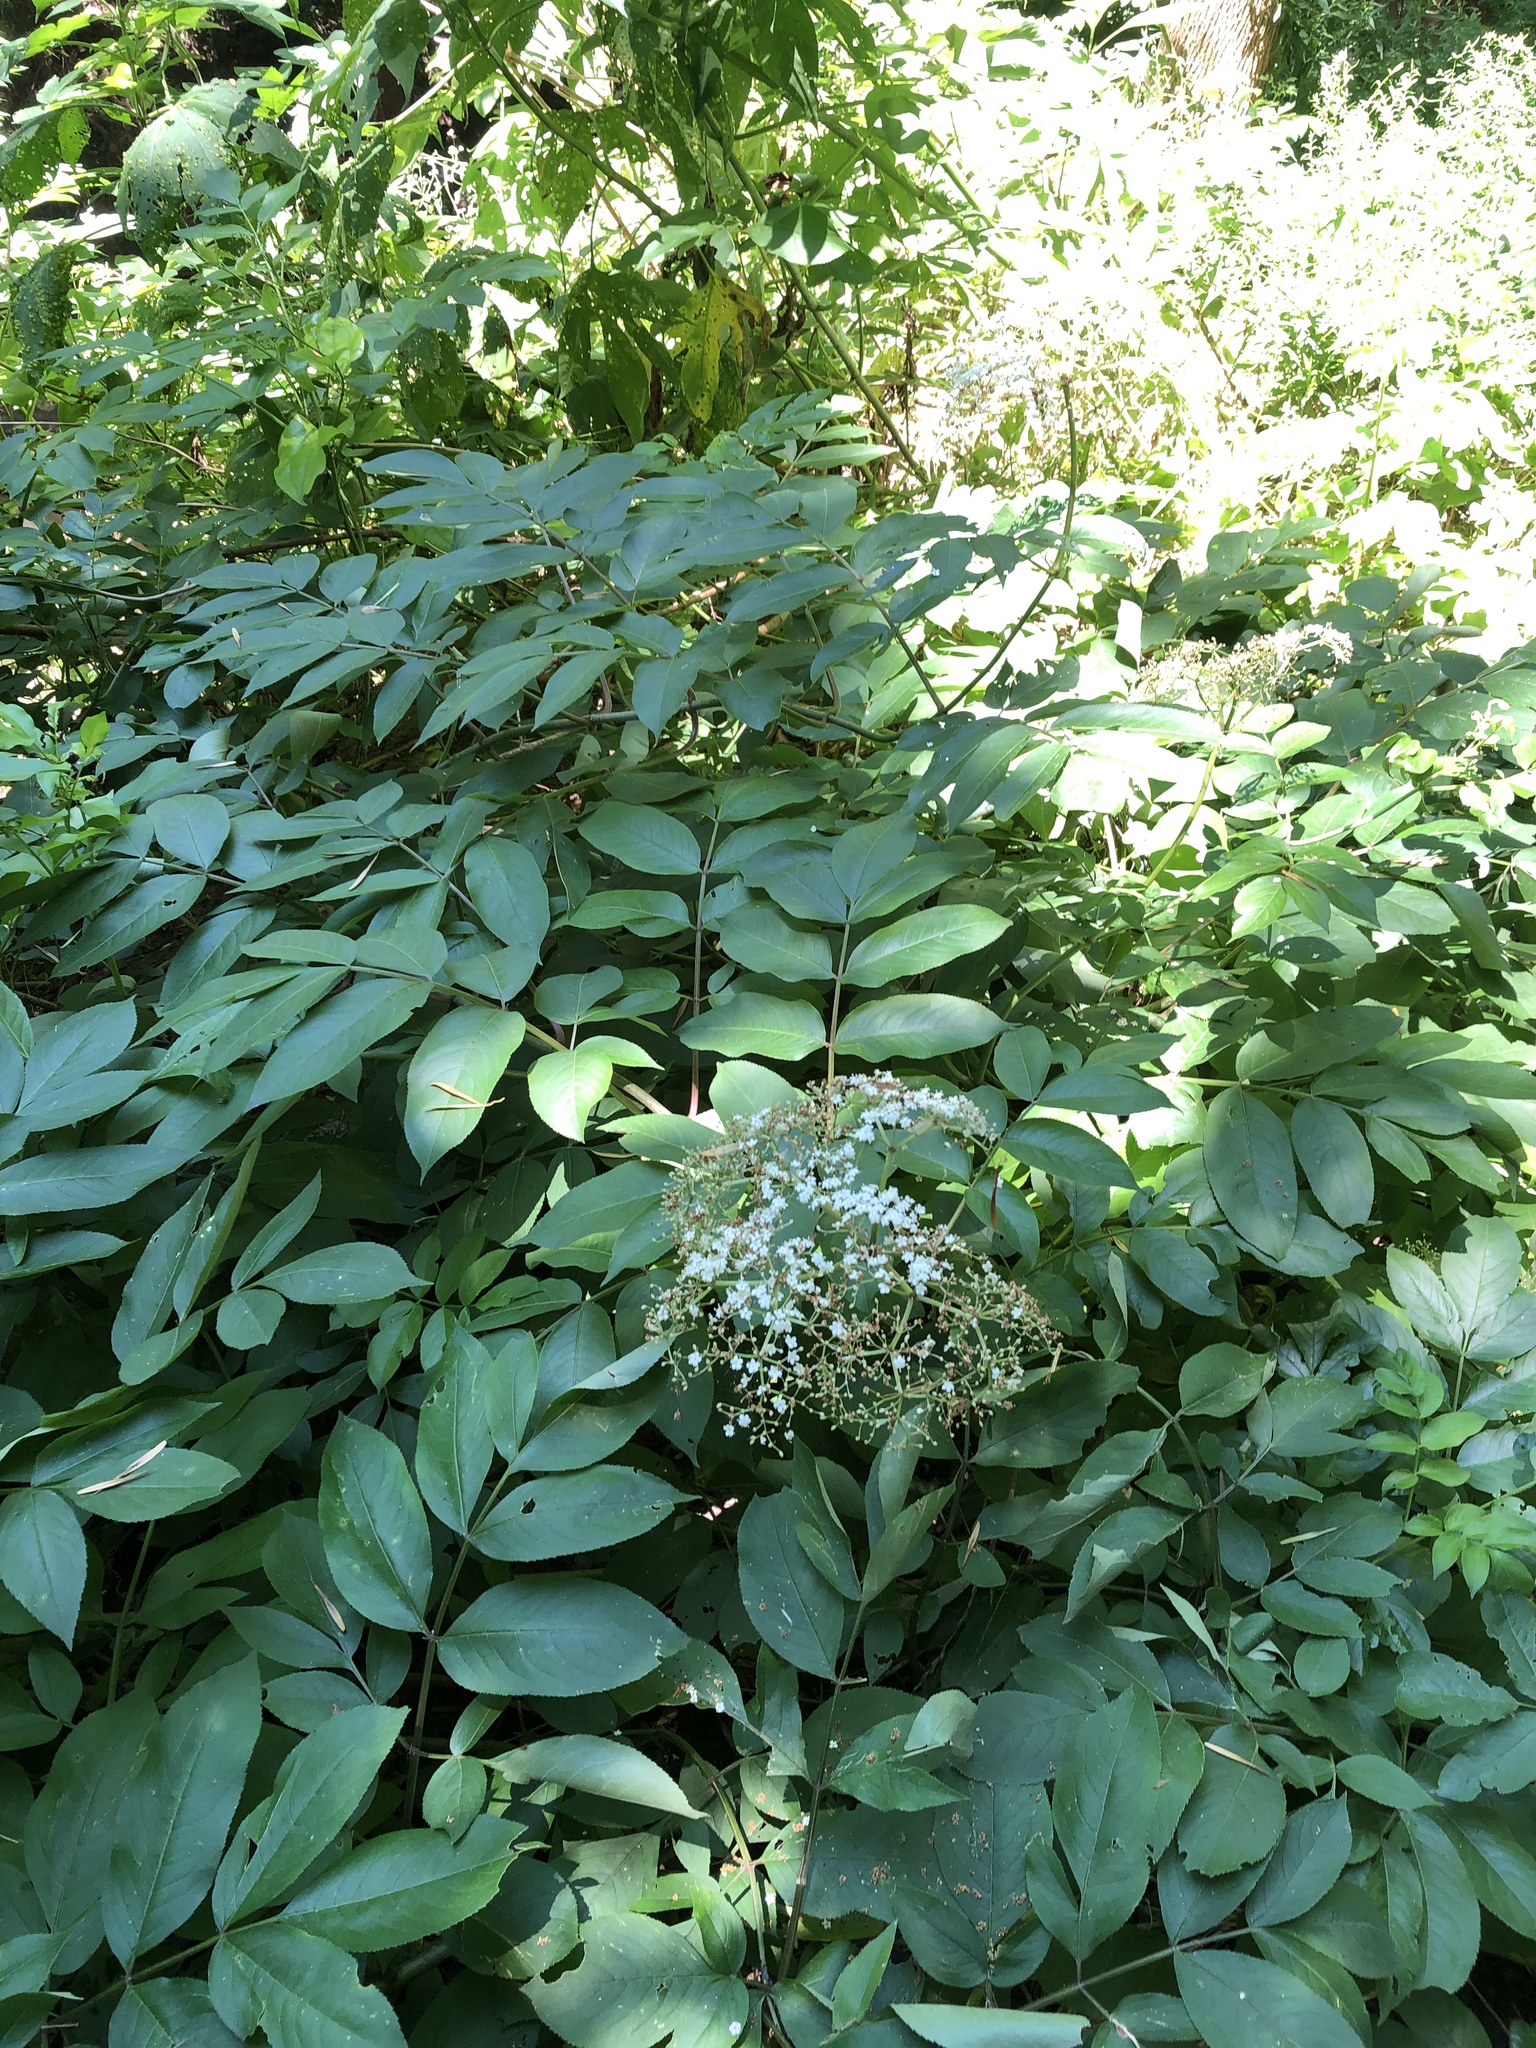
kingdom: Plantae
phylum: Tracheophyta
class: Magnoliopsida
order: Dipsacales
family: Viburnaceae
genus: Sambucus
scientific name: Sambucus canadensis
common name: American elder
